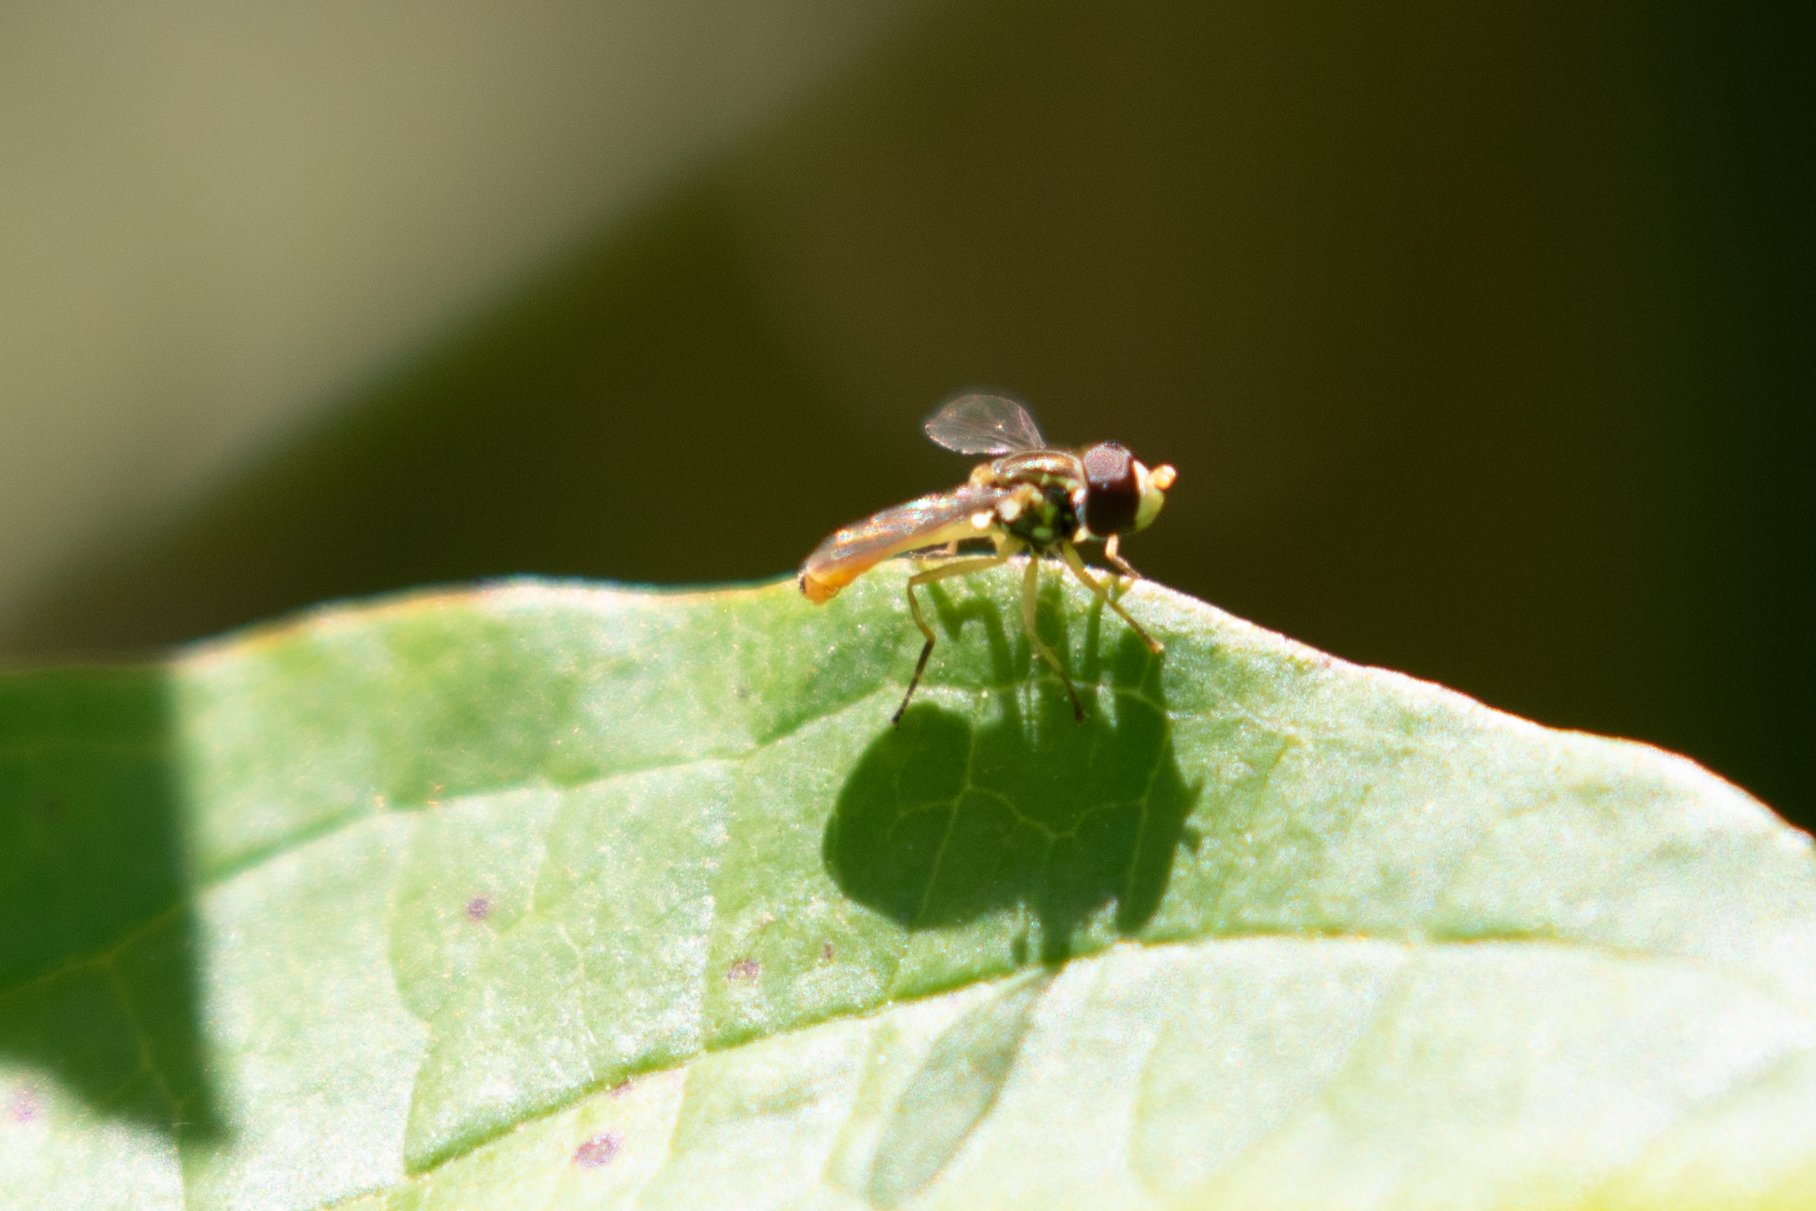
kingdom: Animalia
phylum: Arthropoda
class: Insecta
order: Diptera
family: Syrphidae
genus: Toxomerus
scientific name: Toxomerus marginatus
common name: Syrphid fly
